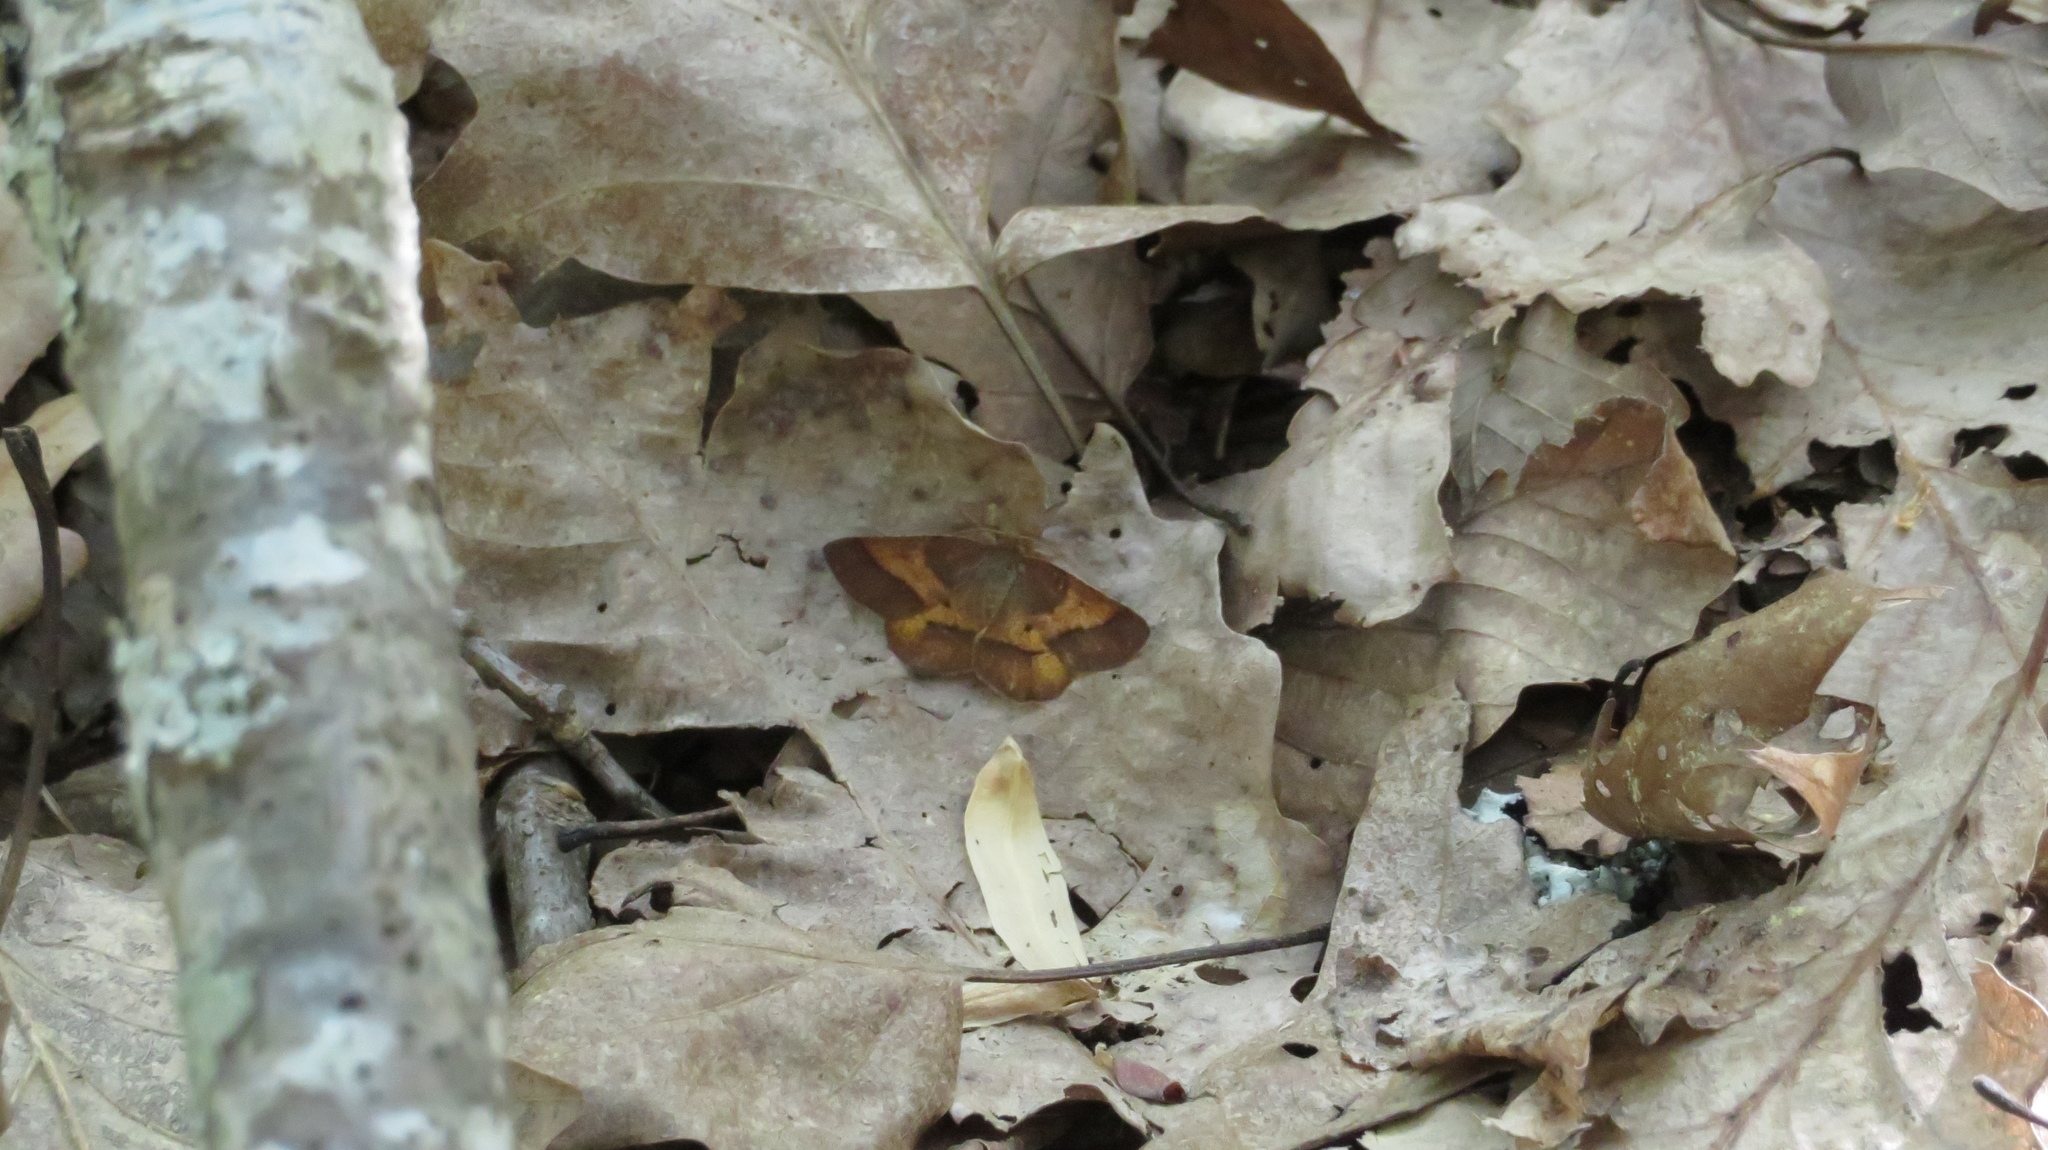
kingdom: Animalia
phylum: Arthropoda
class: Insecta
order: Lepidoptera
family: Geometridae
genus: Metarranthis
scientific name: Metarranthis obfirmaria
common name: Yellow-washed metarranthis
